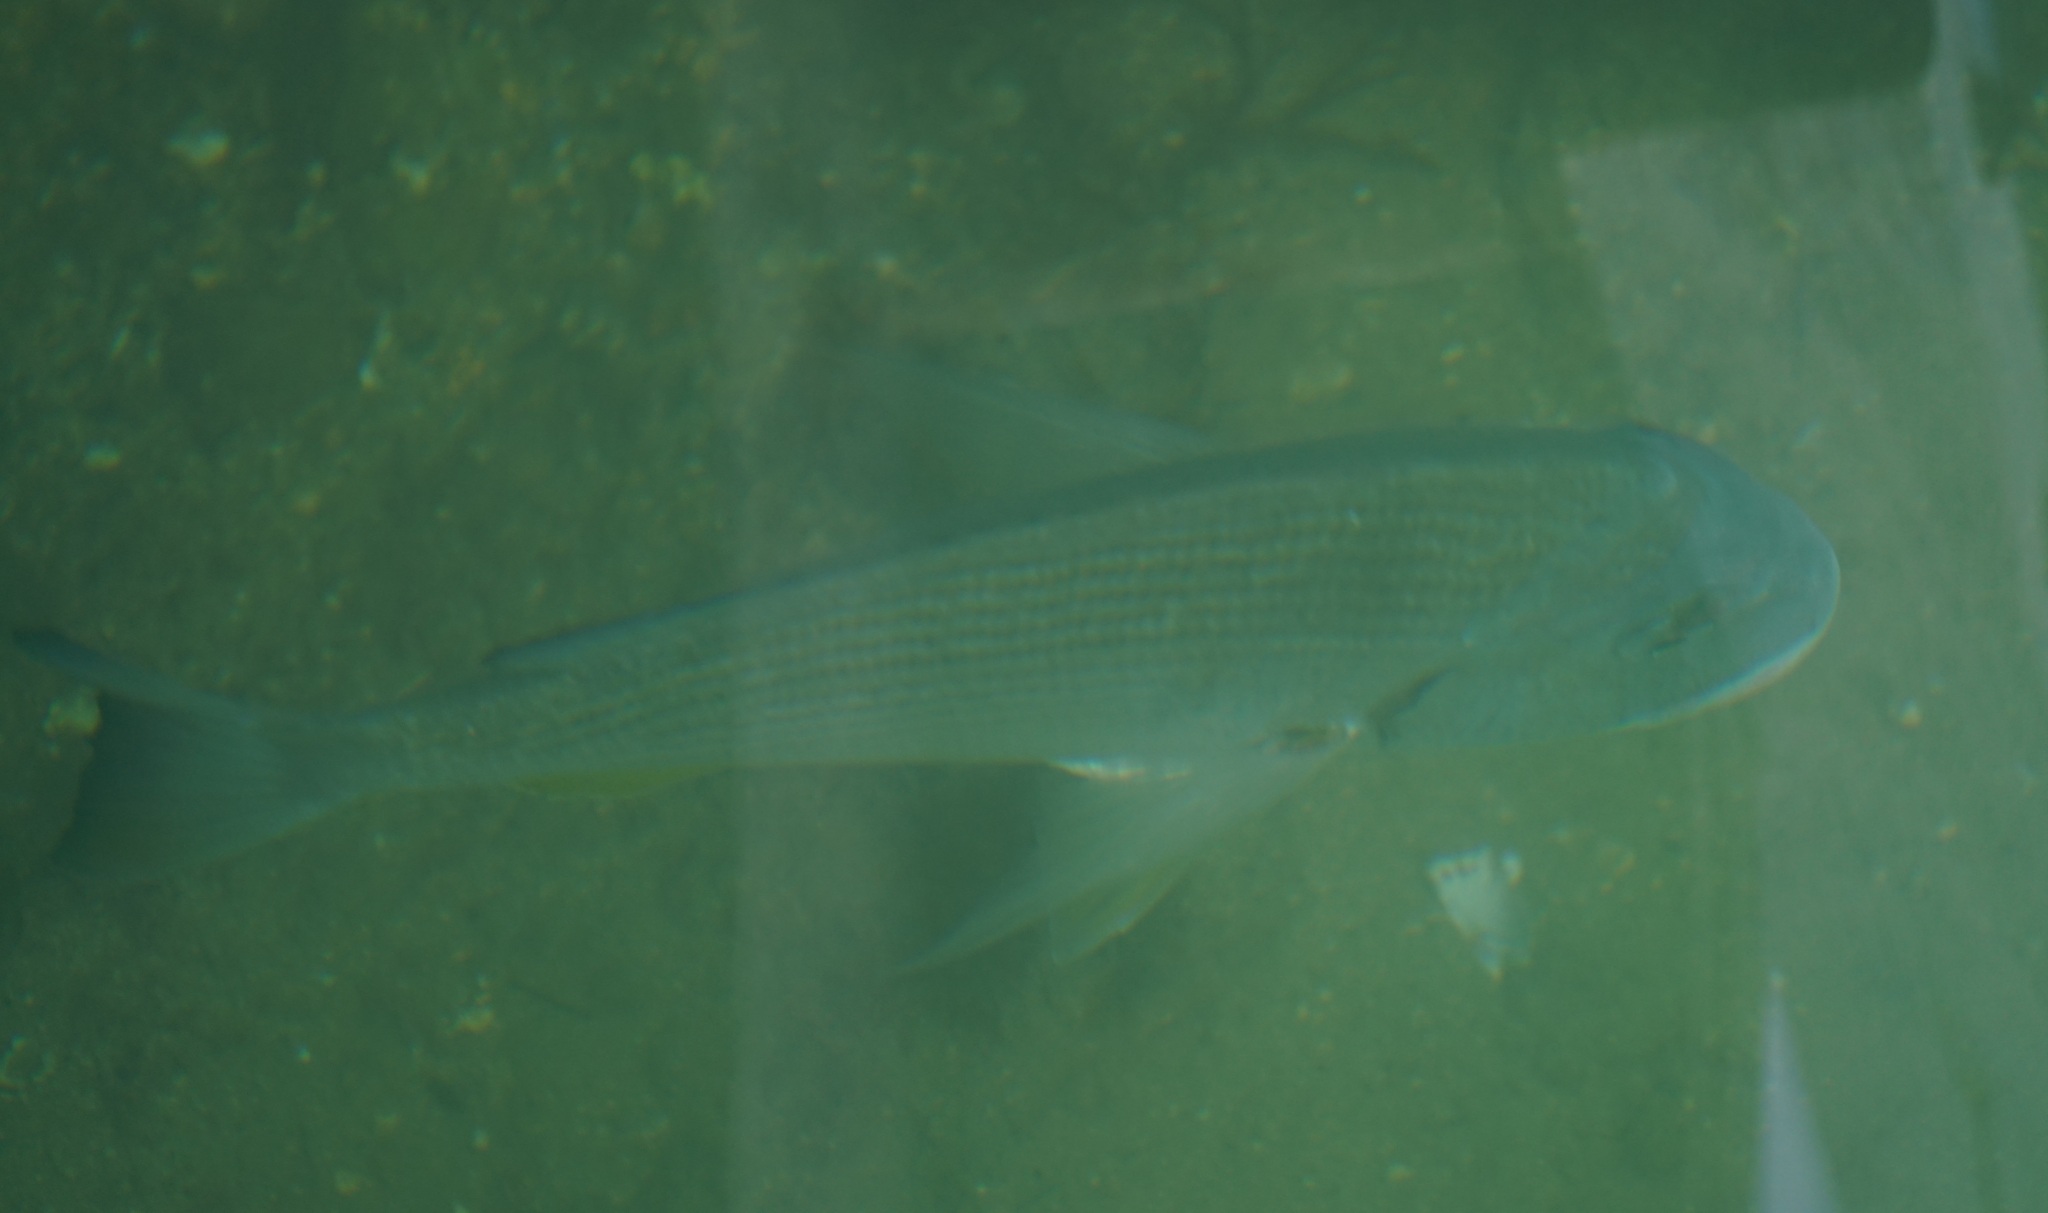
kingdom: Animalia
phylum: Chordata
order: Perciformes
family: Sparidae
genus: Rhabdosargus
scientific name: Rhabdosargus sarba
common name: Goldlined seabream
